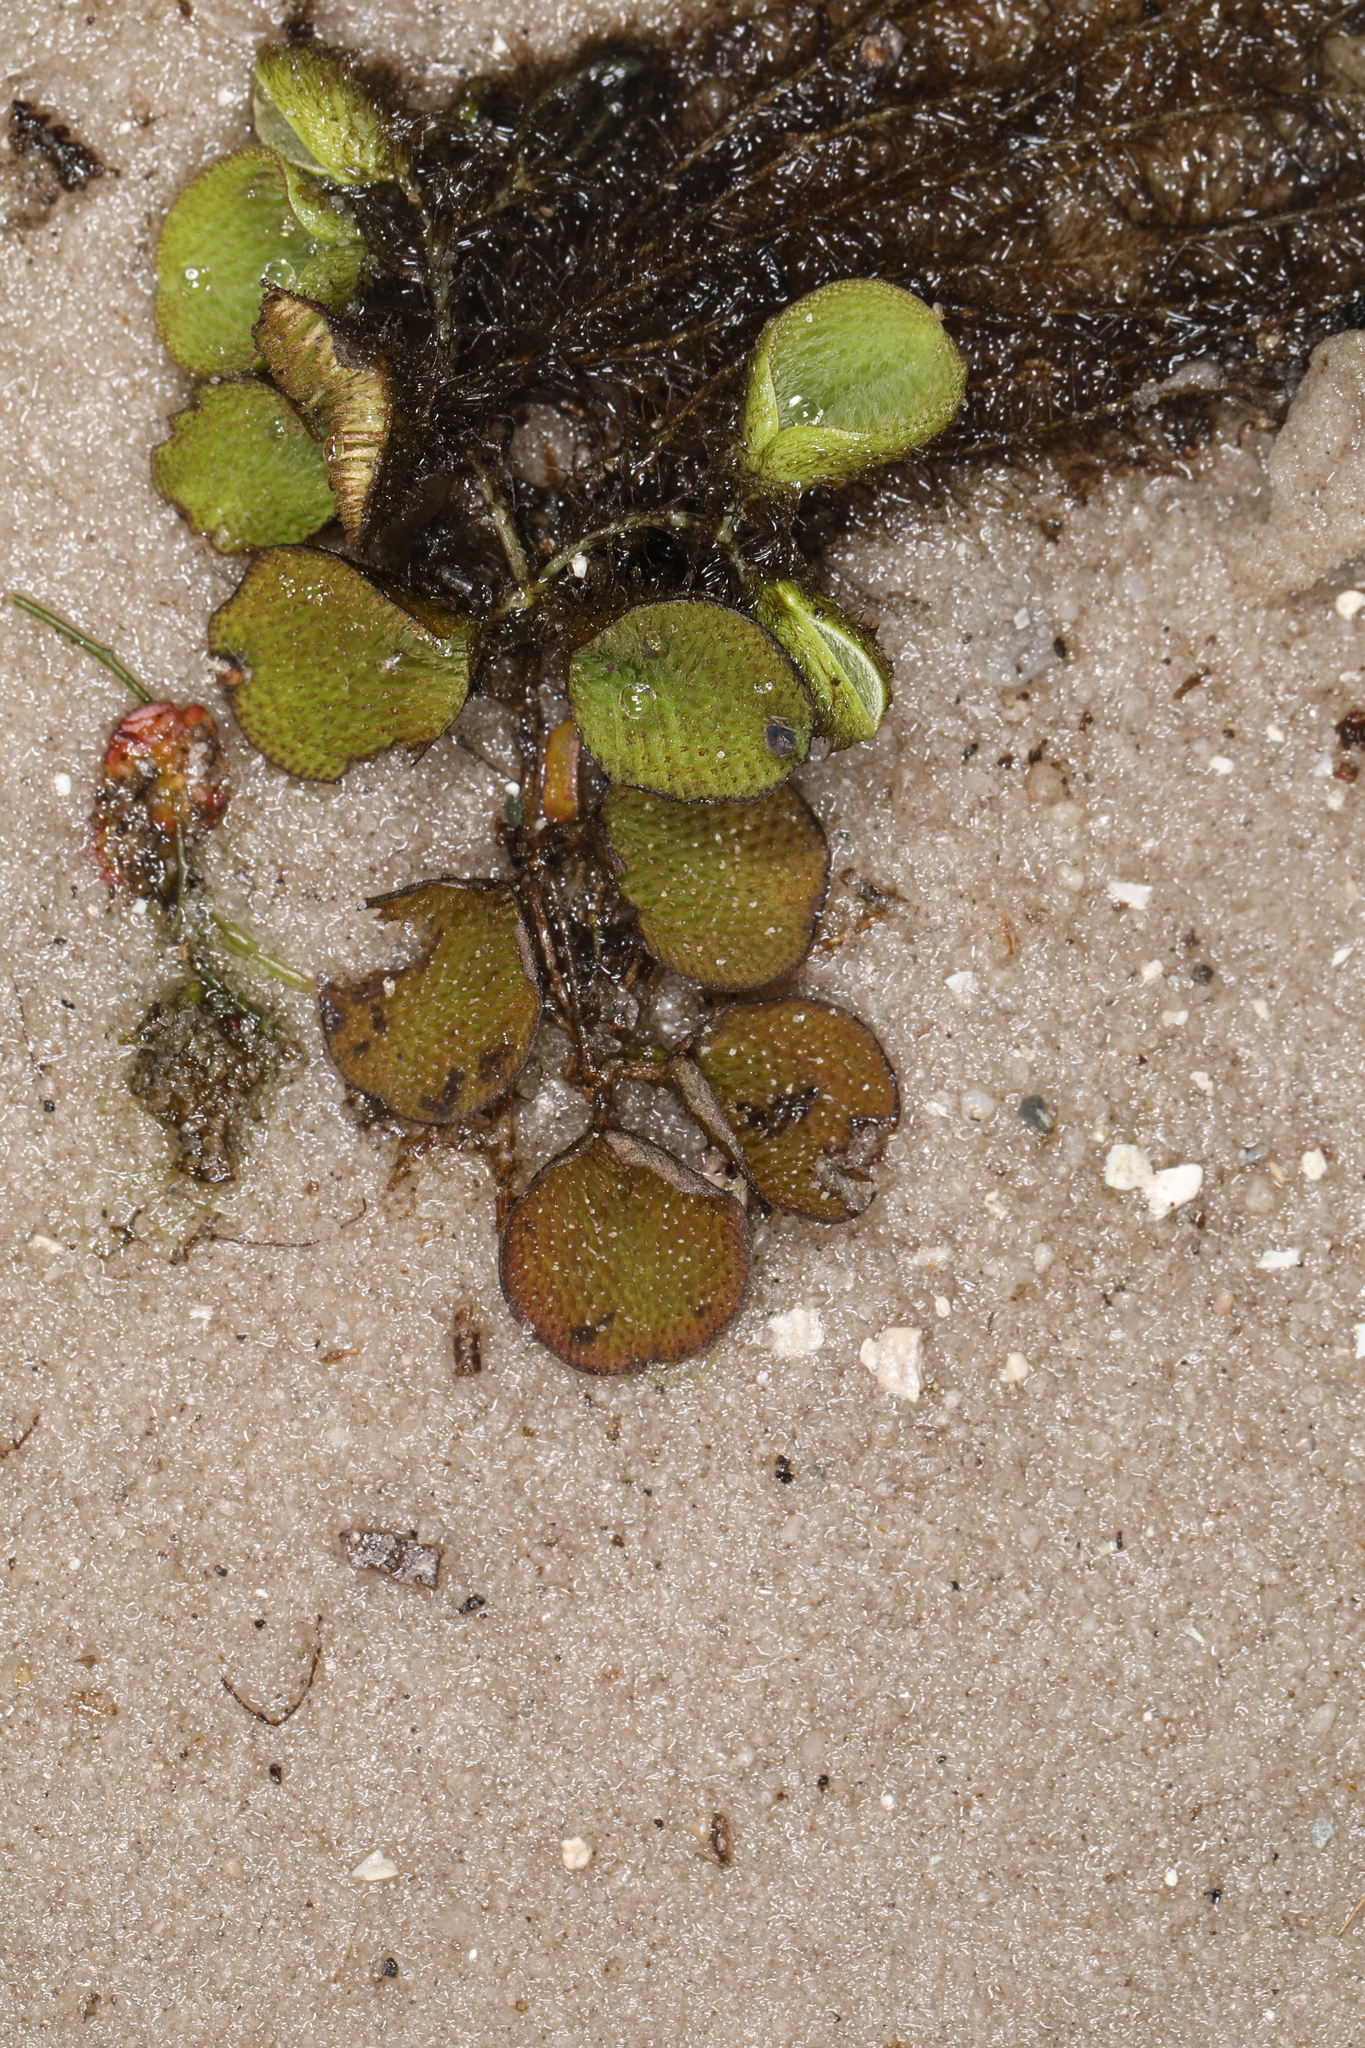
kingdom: Plantae
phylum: Tracheophyta
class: Polypodiopsida
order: Salviniales
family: Salviniaceae
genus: Salvinia
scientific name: Salvinia minima
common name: Water spangles
